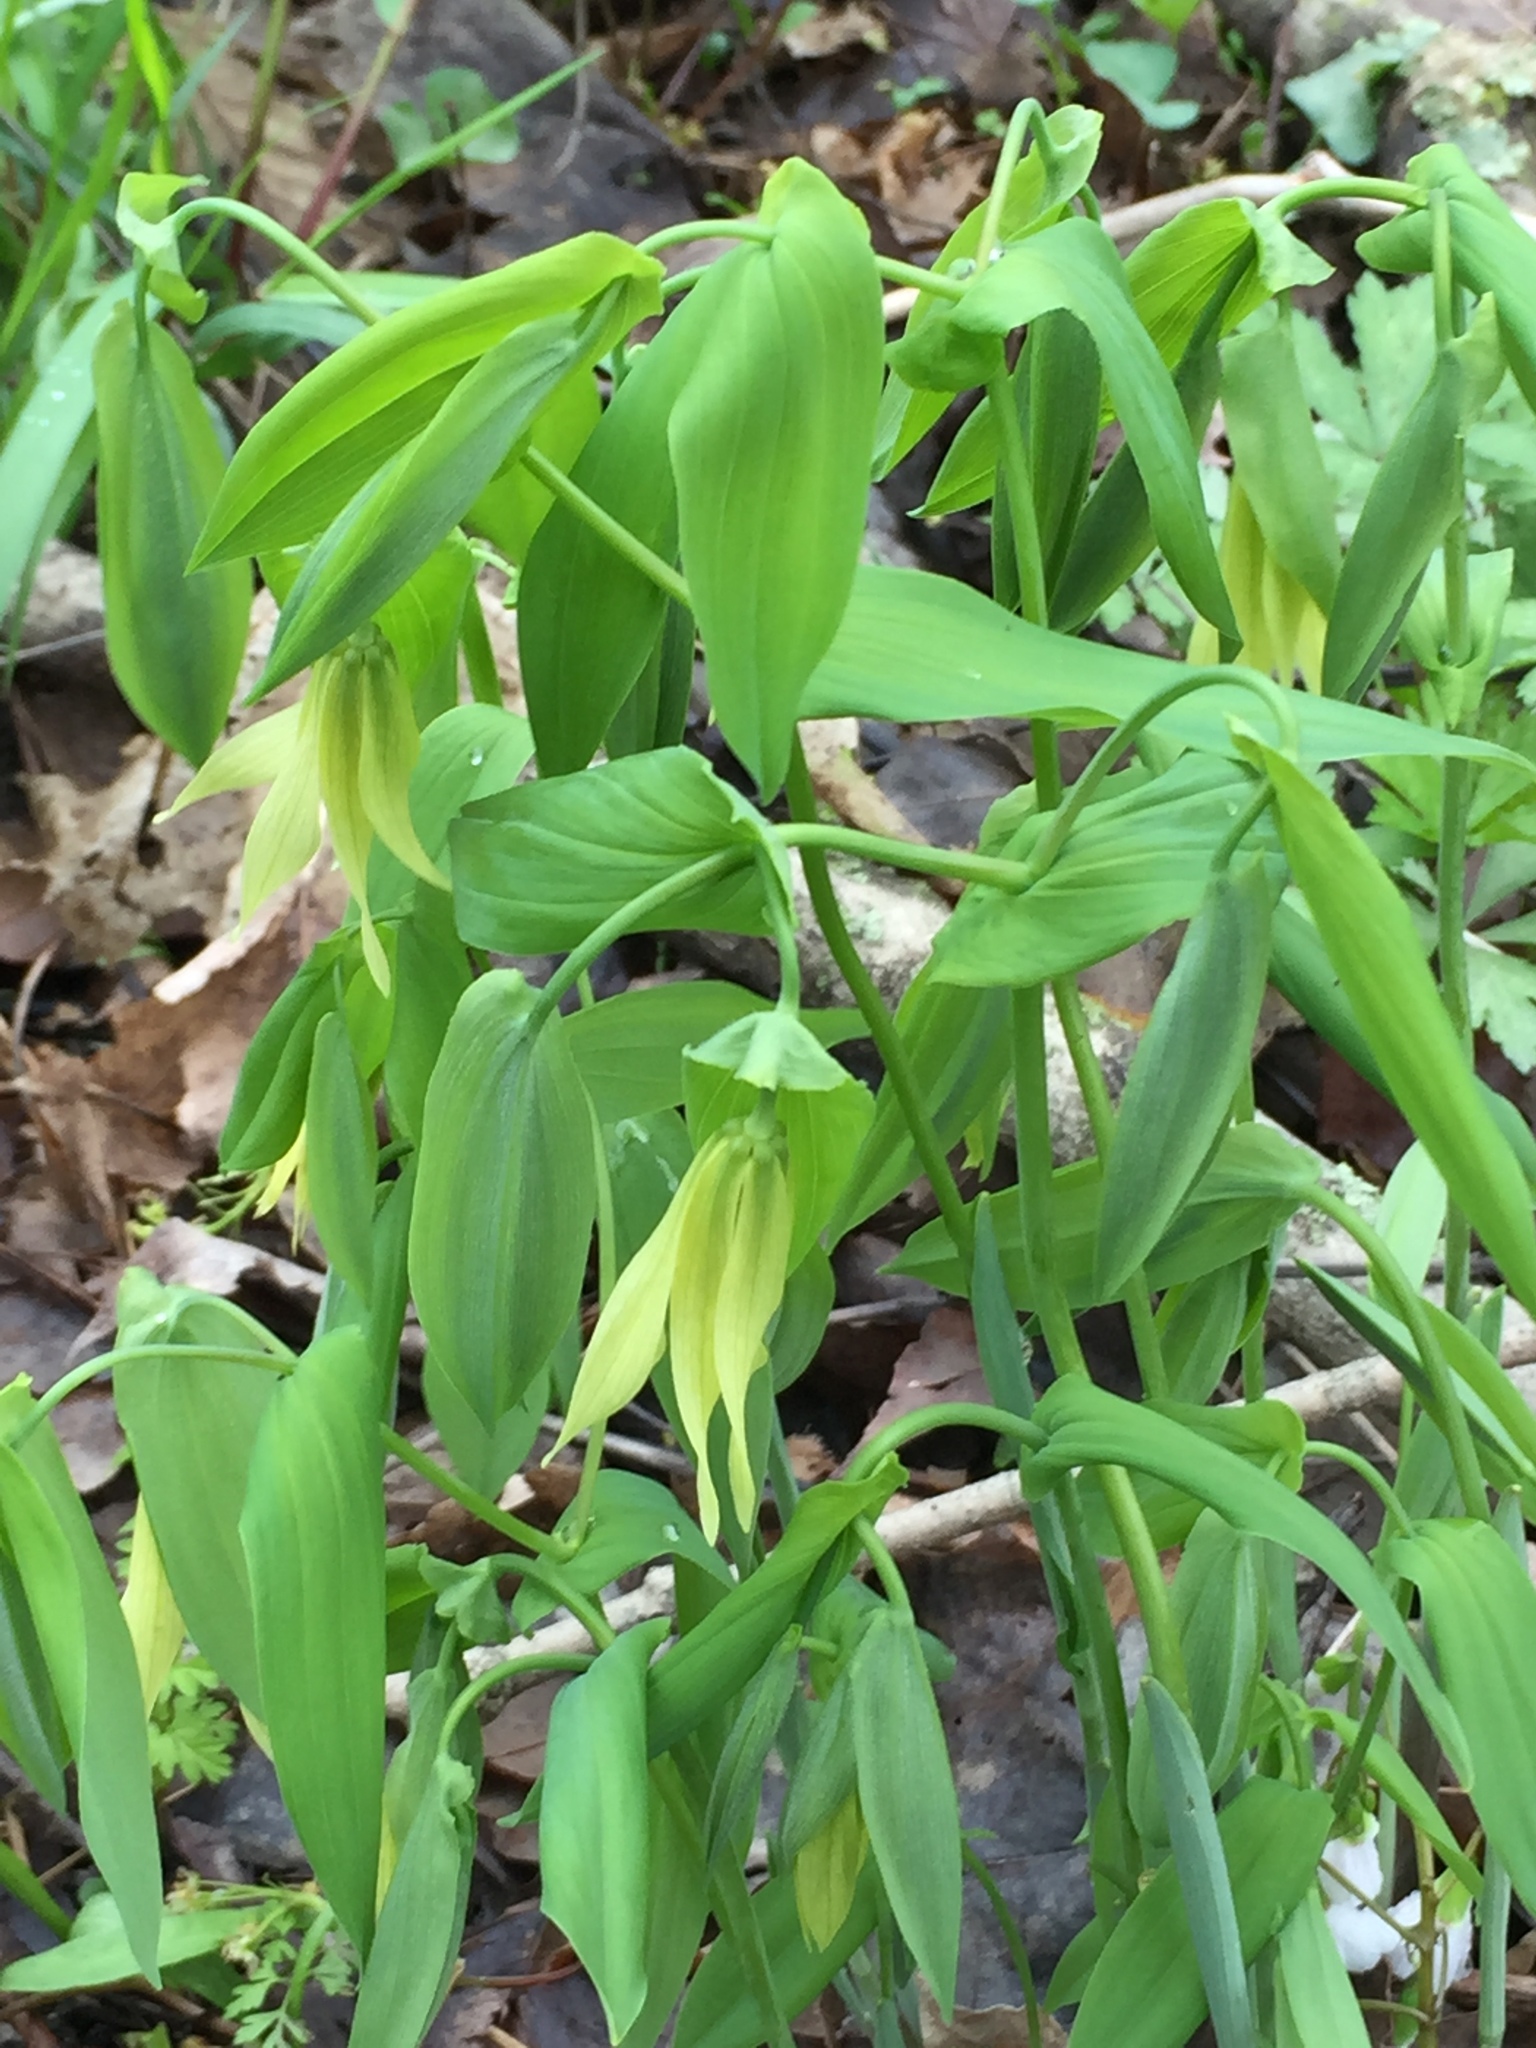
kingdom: Plantae
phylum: Tracheophyta
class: Liliopsida
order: Liliales
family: Colchicaceae
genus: Uvularia
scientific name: Uvularia grandiflora
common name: Bellwort
